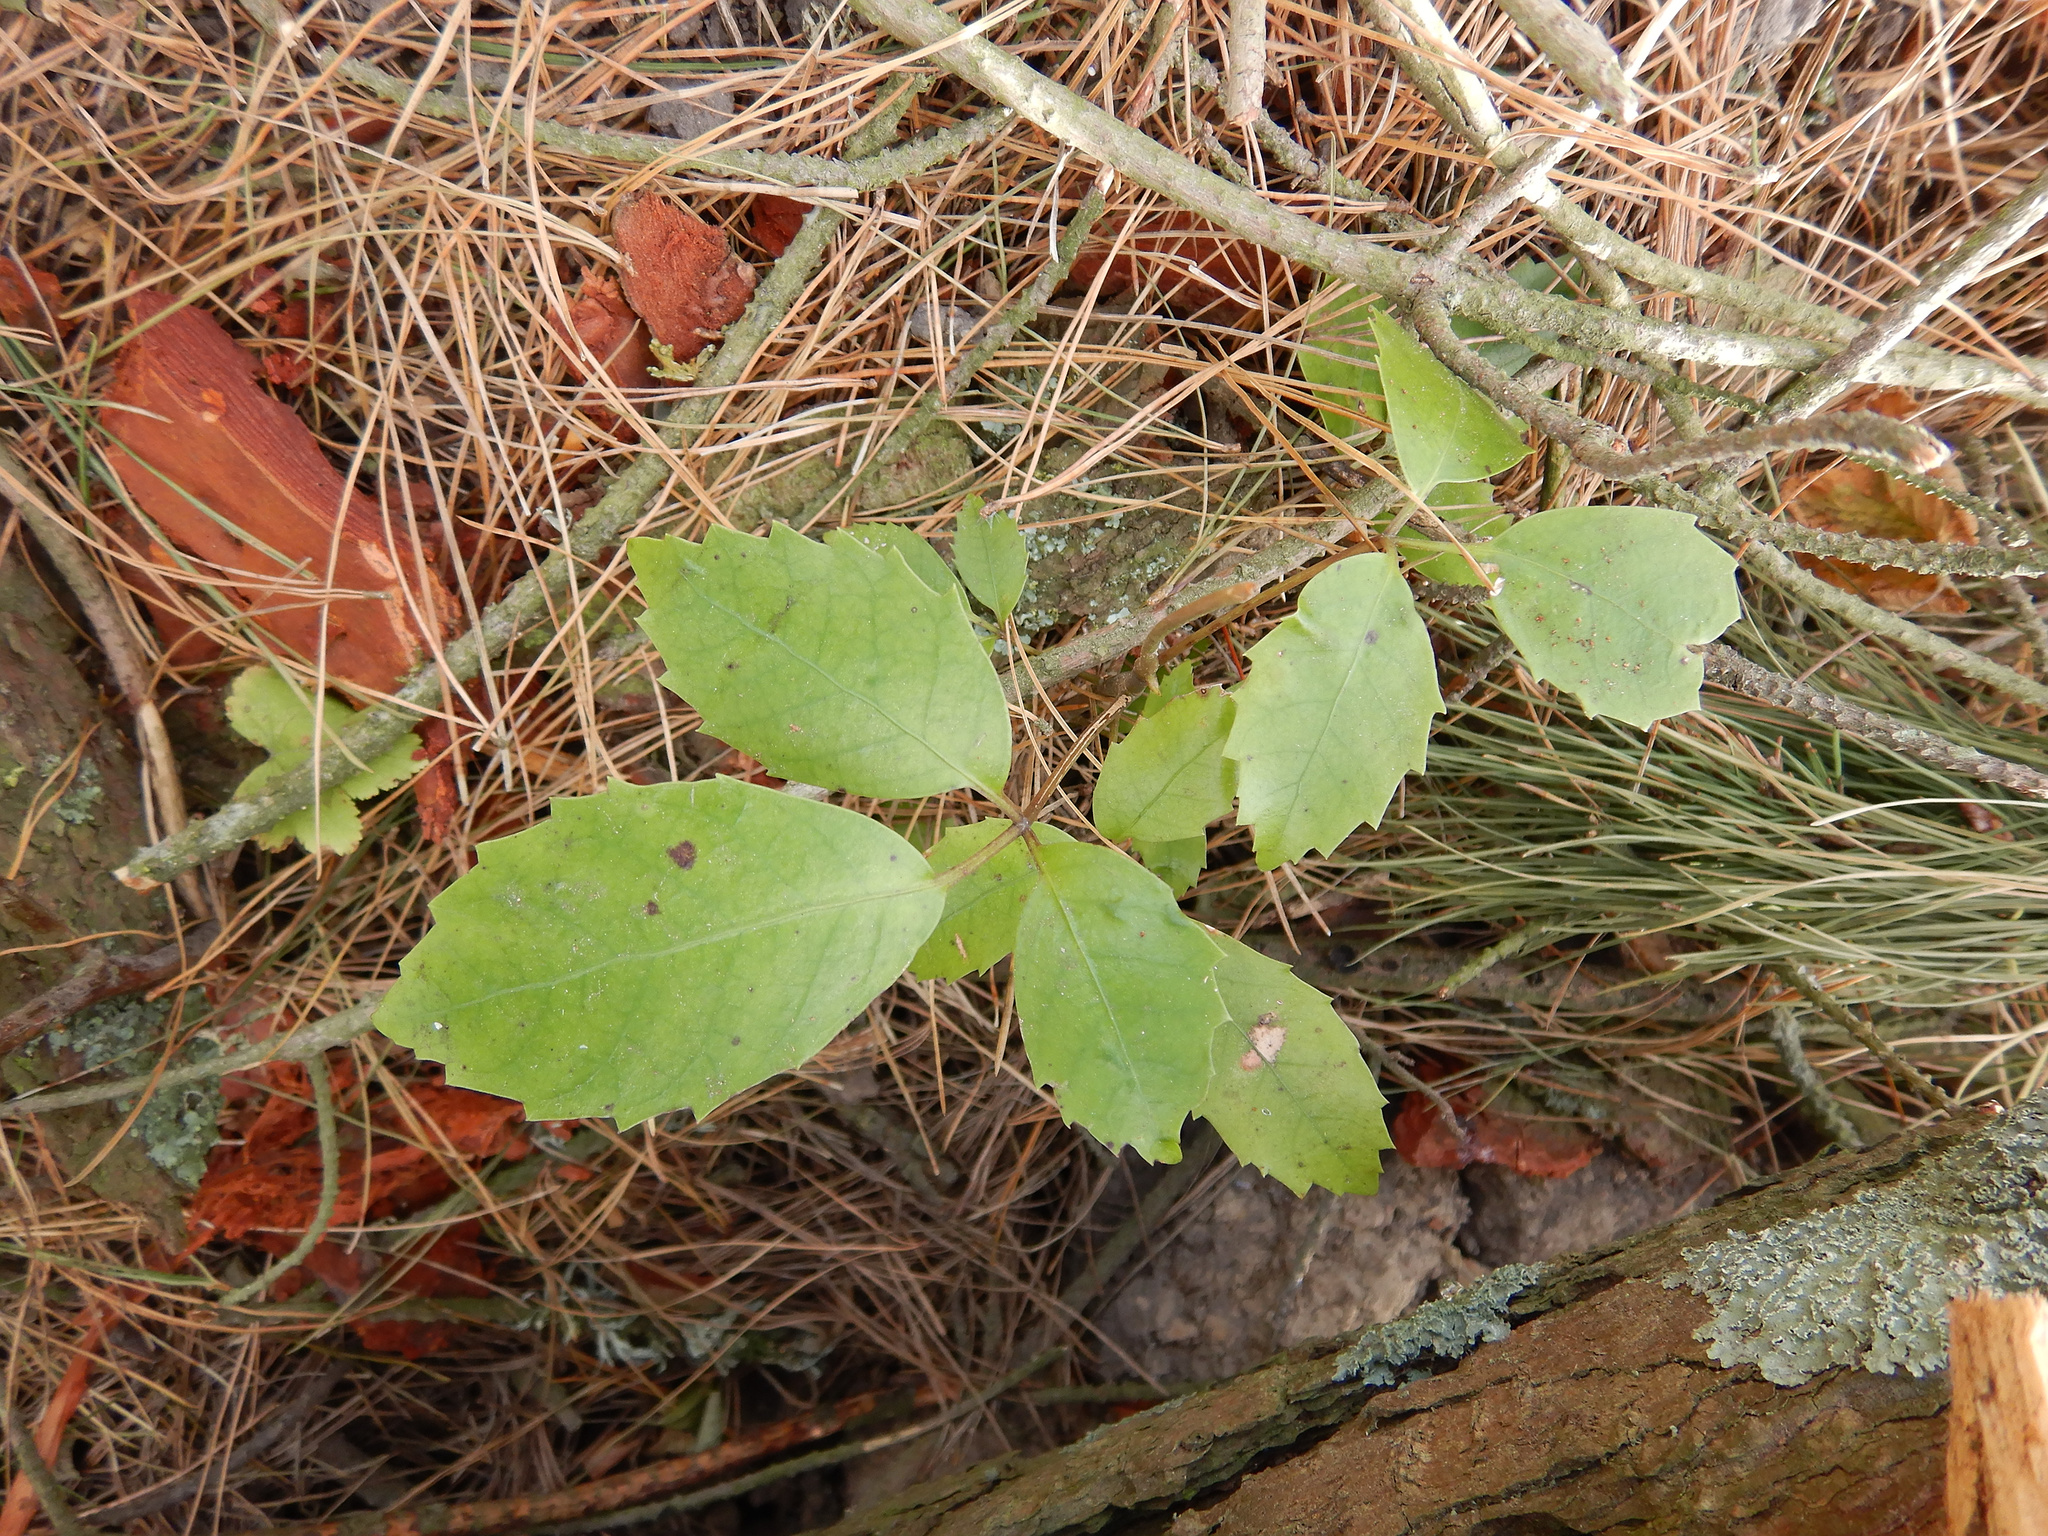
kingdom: Plantae
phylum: Tracheophyta
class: Magnoliopsida
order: Apiales
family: Araliaceae
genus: Neopanax
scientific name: Neopanax arboreus
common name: Five-fingers
